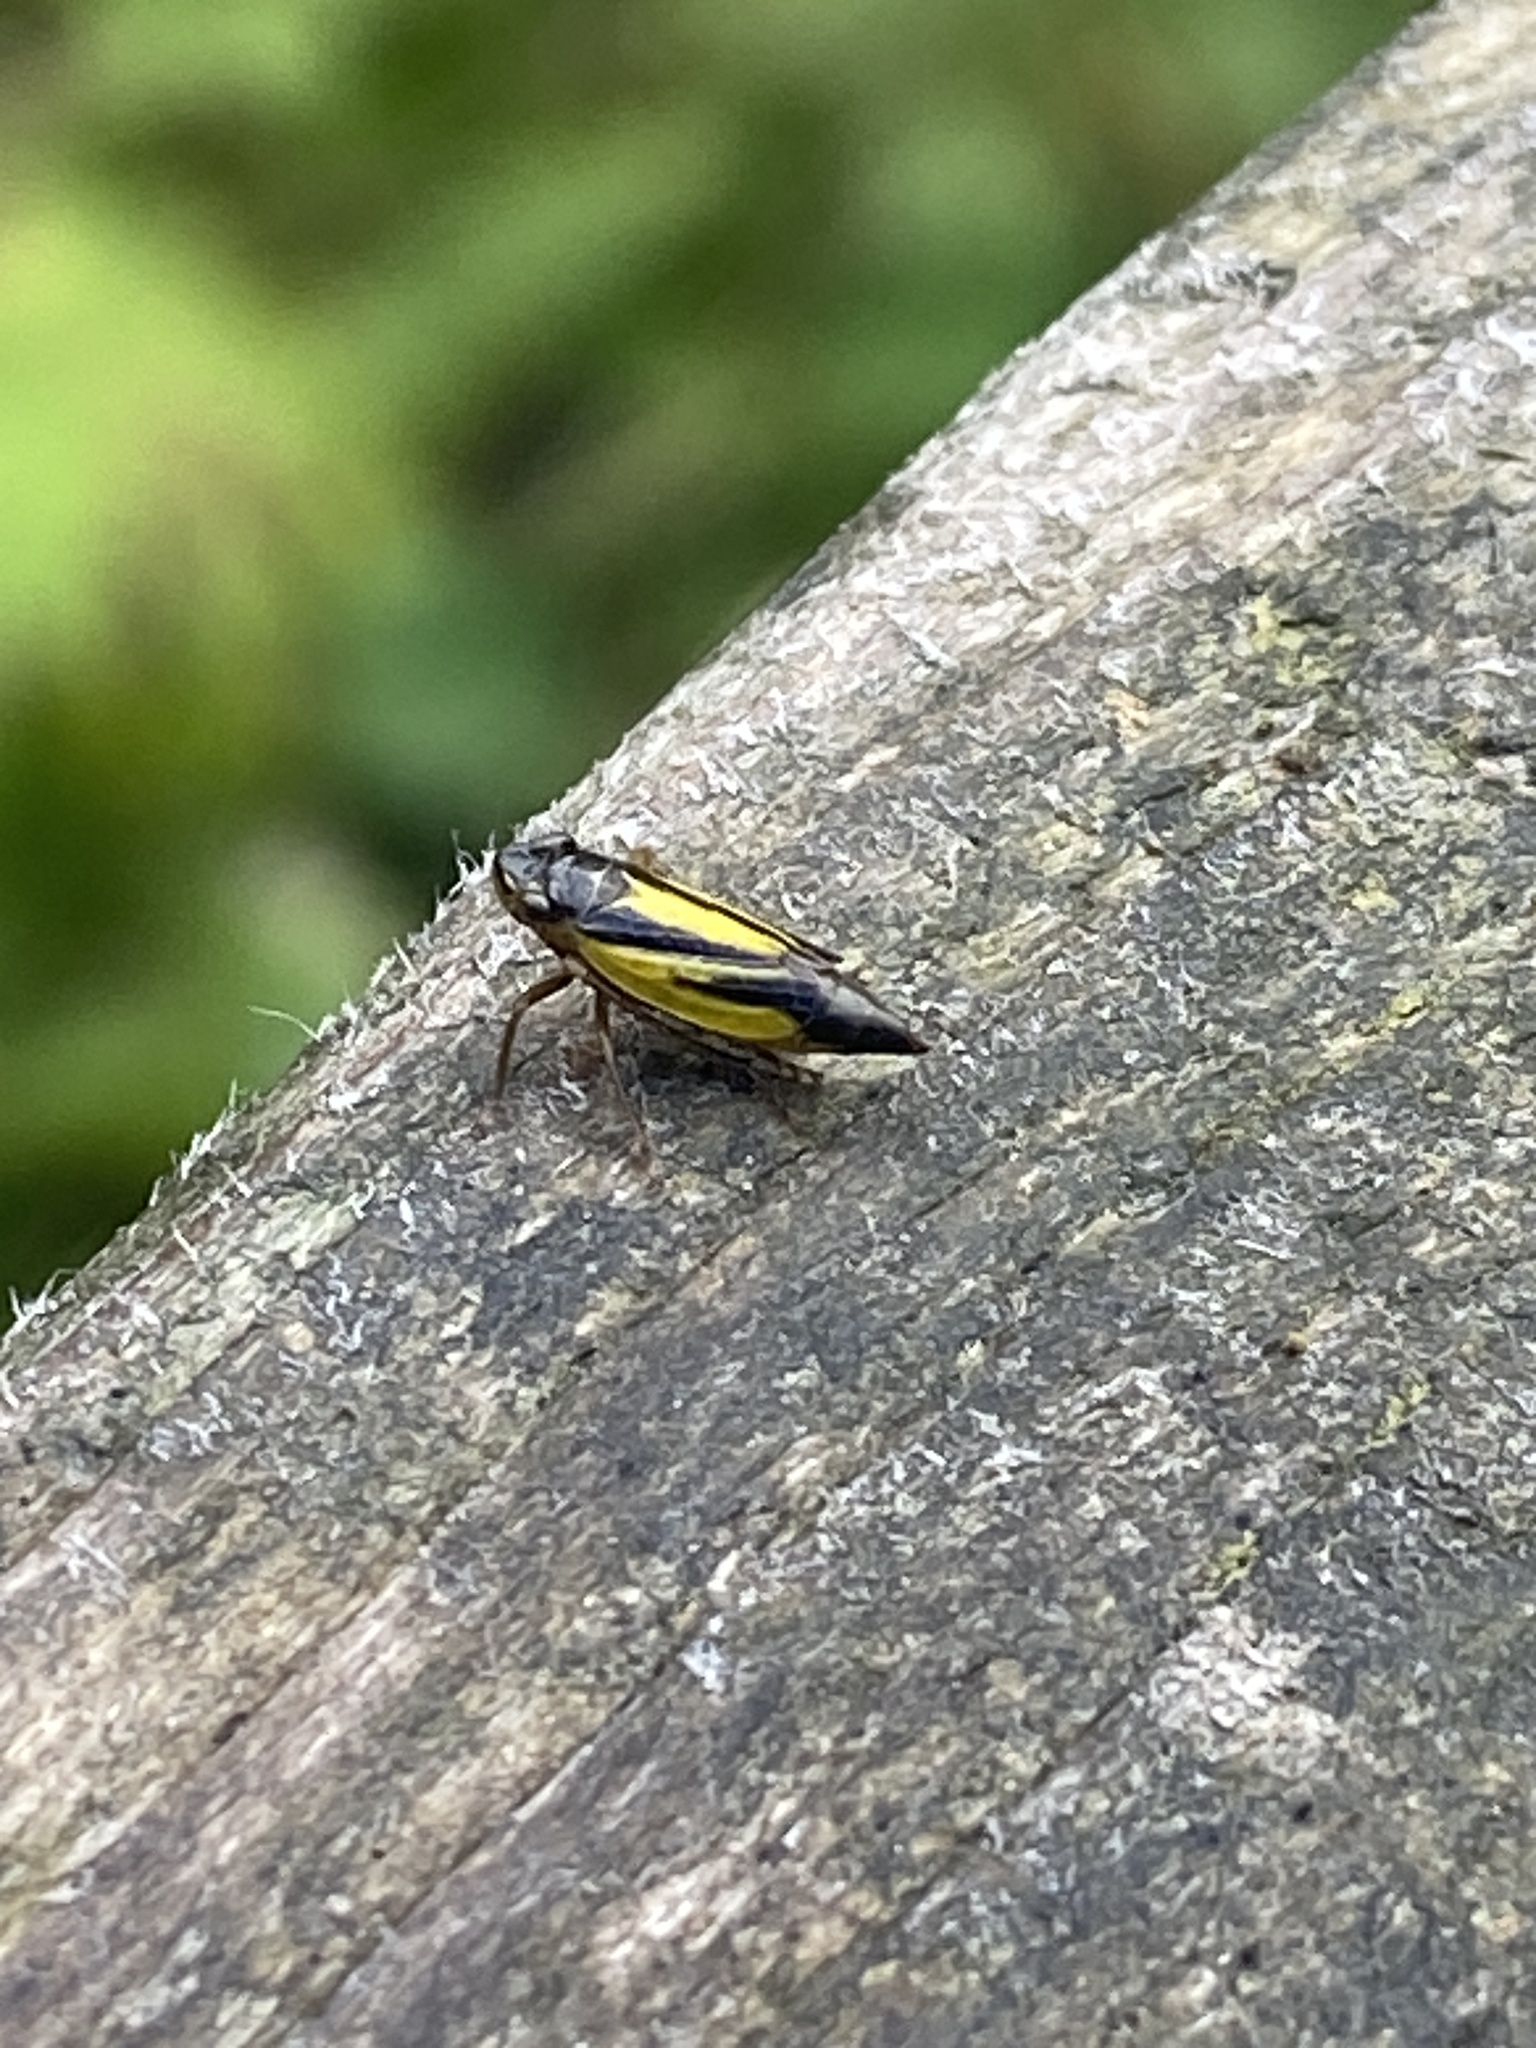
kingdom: Animalia
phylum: Arthropoda
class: Insecta
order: Hemiptera
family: Cicadellidae
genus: Evacanthus
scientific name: Evacanthus interruptus
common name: Leafhopper
